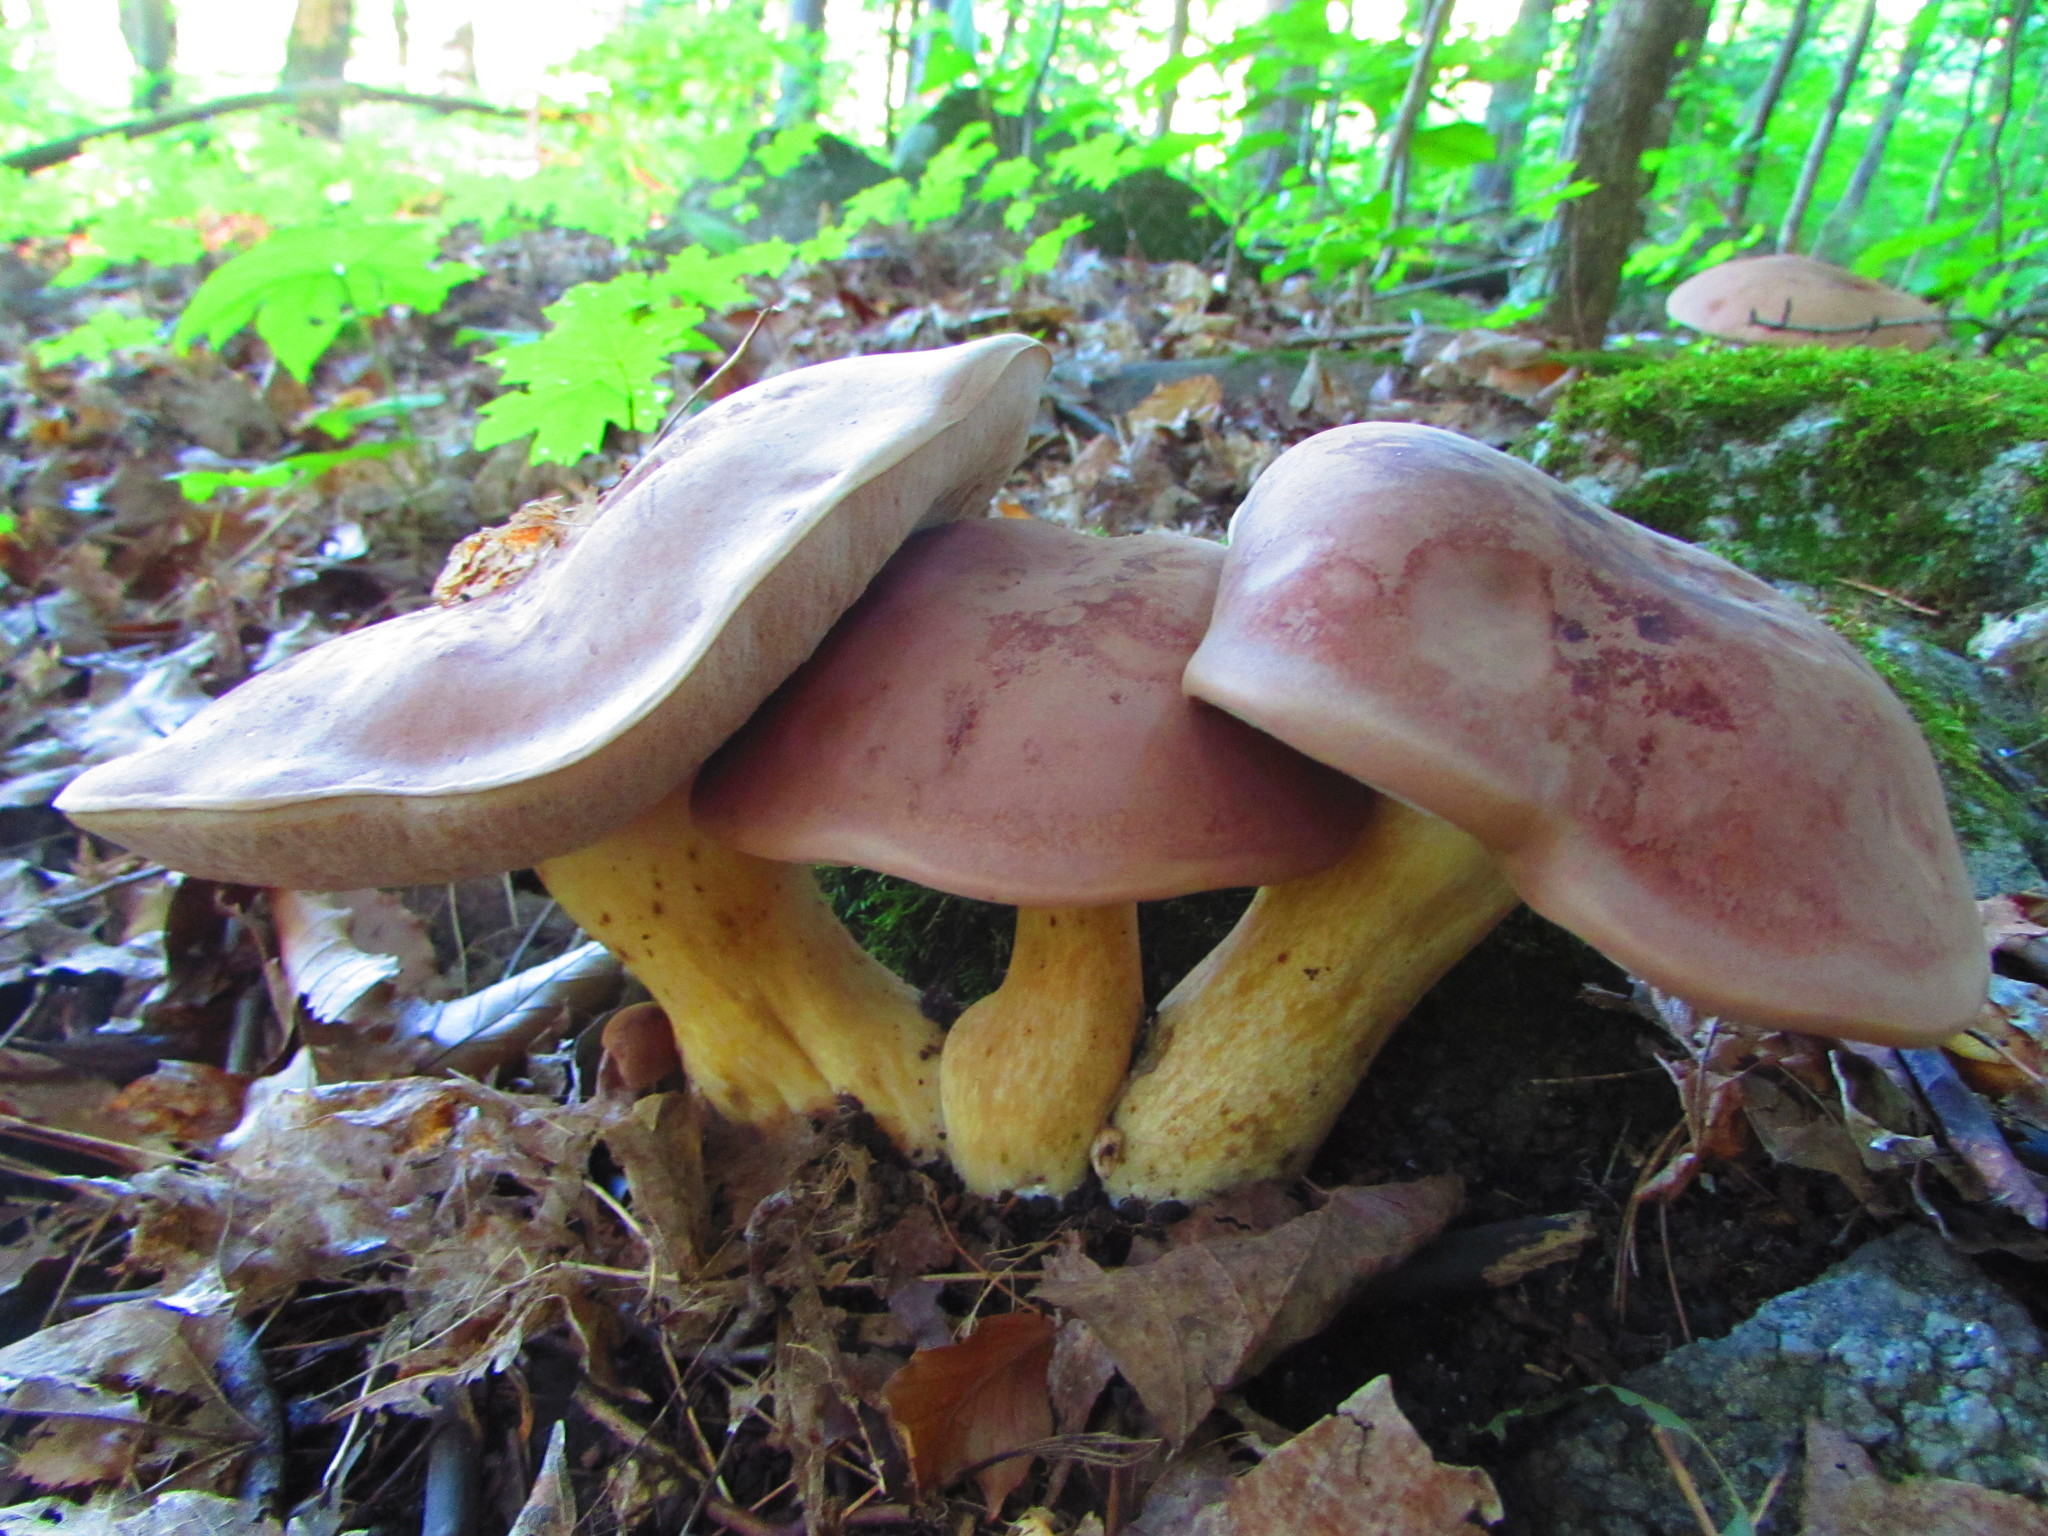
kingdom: Fungi
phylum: Basidiomycota
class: Agaricomycetes
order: Boletales
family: Boletaceae
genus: Tylopilus
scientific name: Tylopilus rubrobrunneus
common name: Reddish brown bitter bolete
